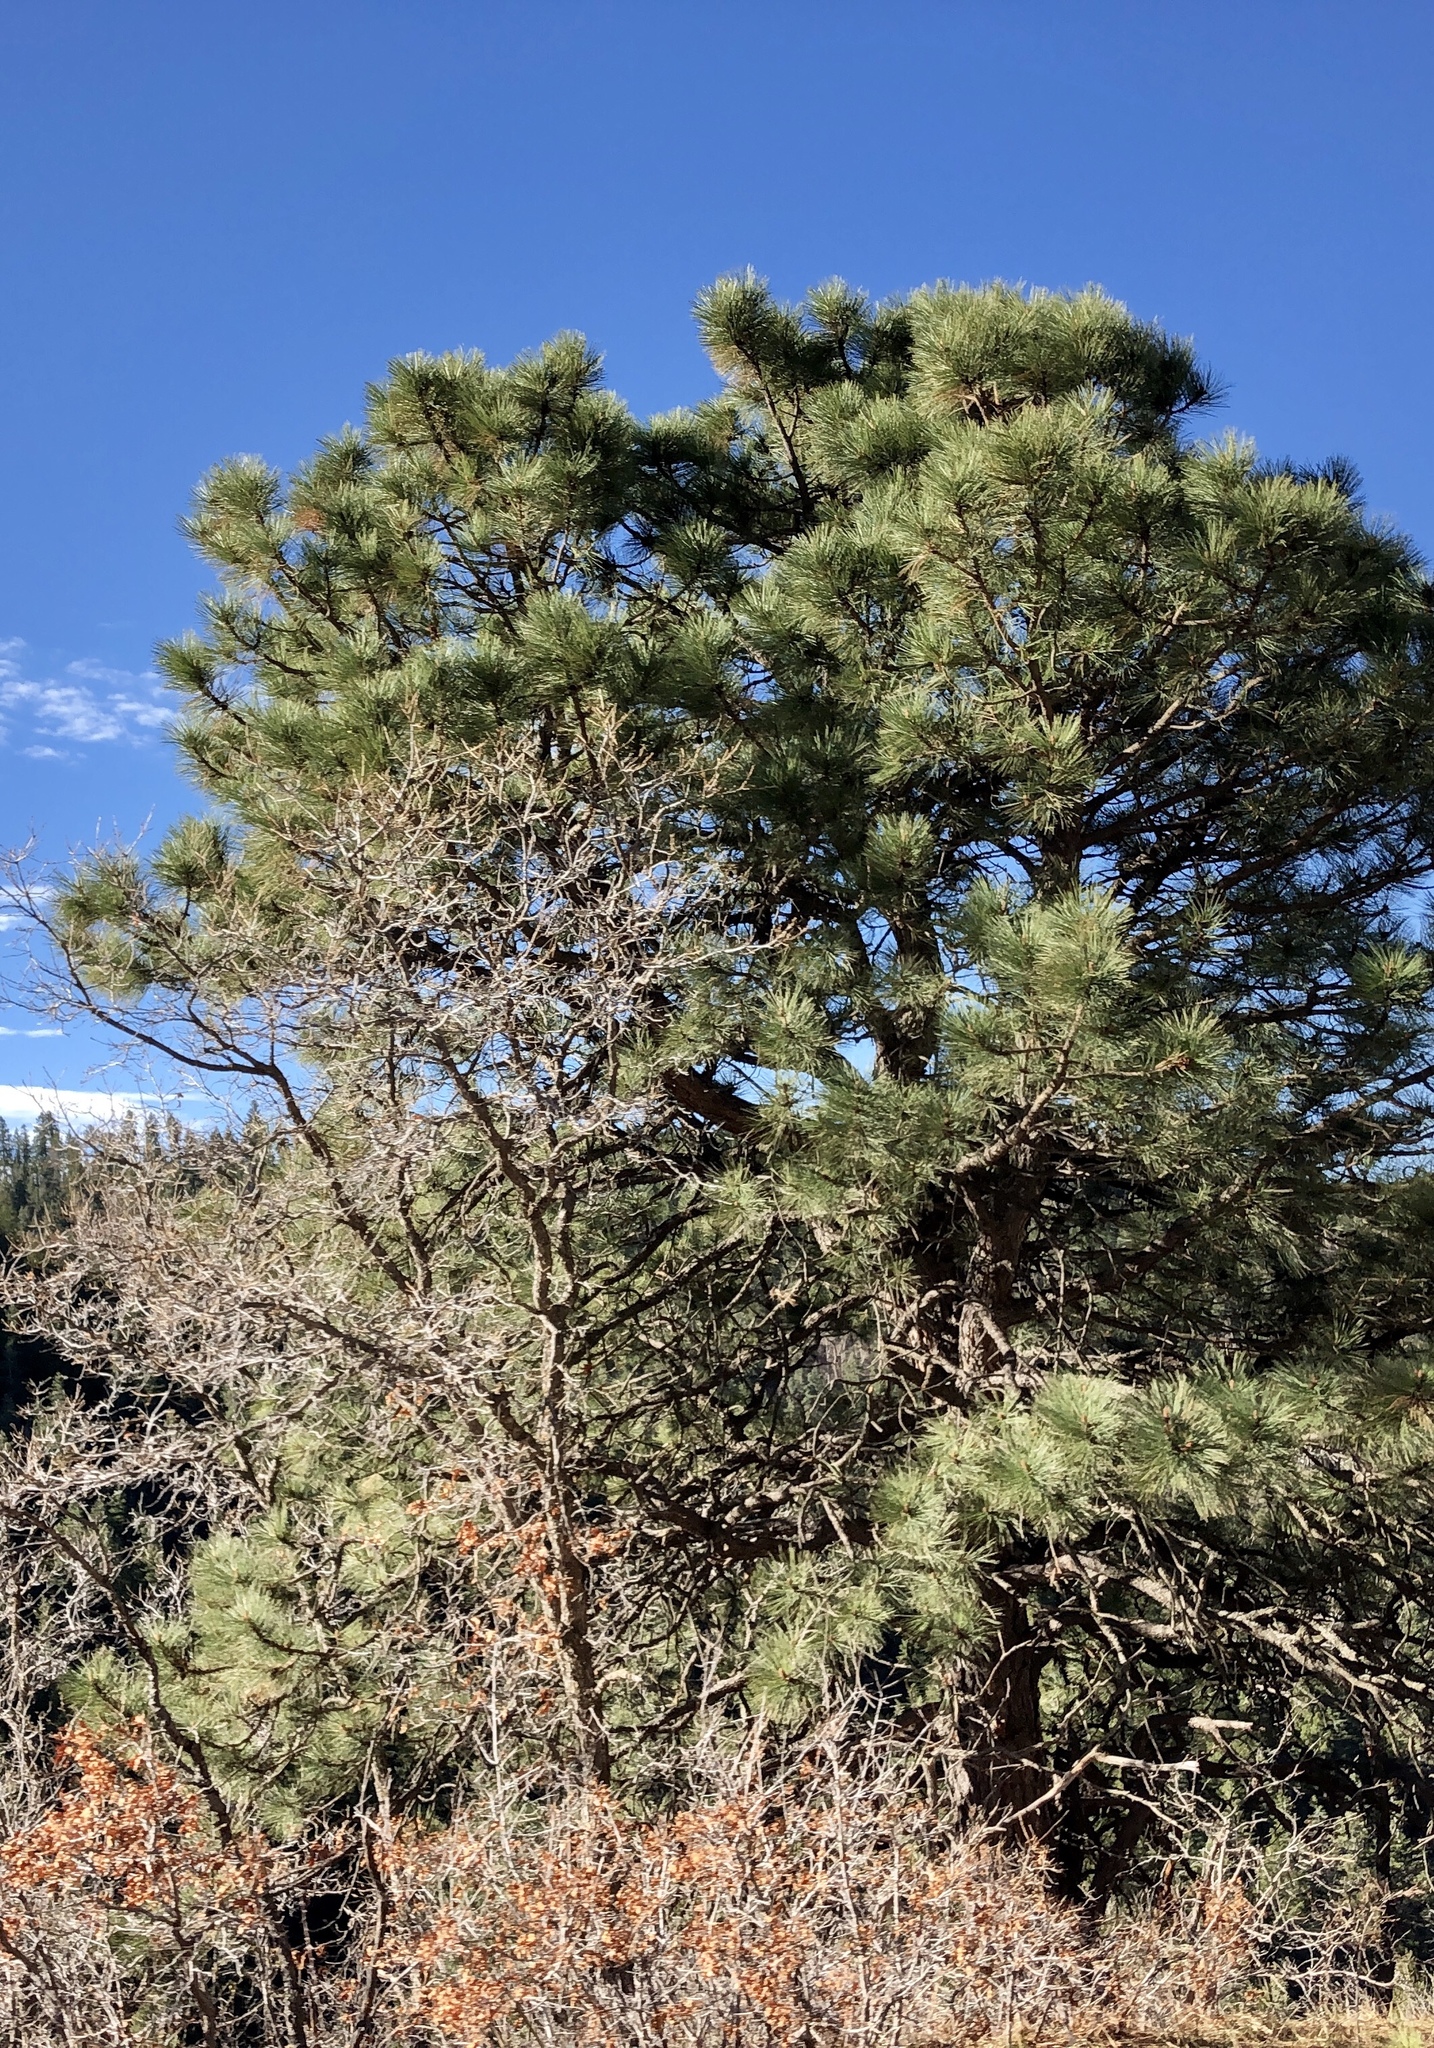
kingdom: Plantae
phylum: Tracheophyta
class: Pinopsida
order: Pinales
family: Pinaceae
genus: Pinus
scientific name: Pinus ponderosa
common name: Western yellow-pine
